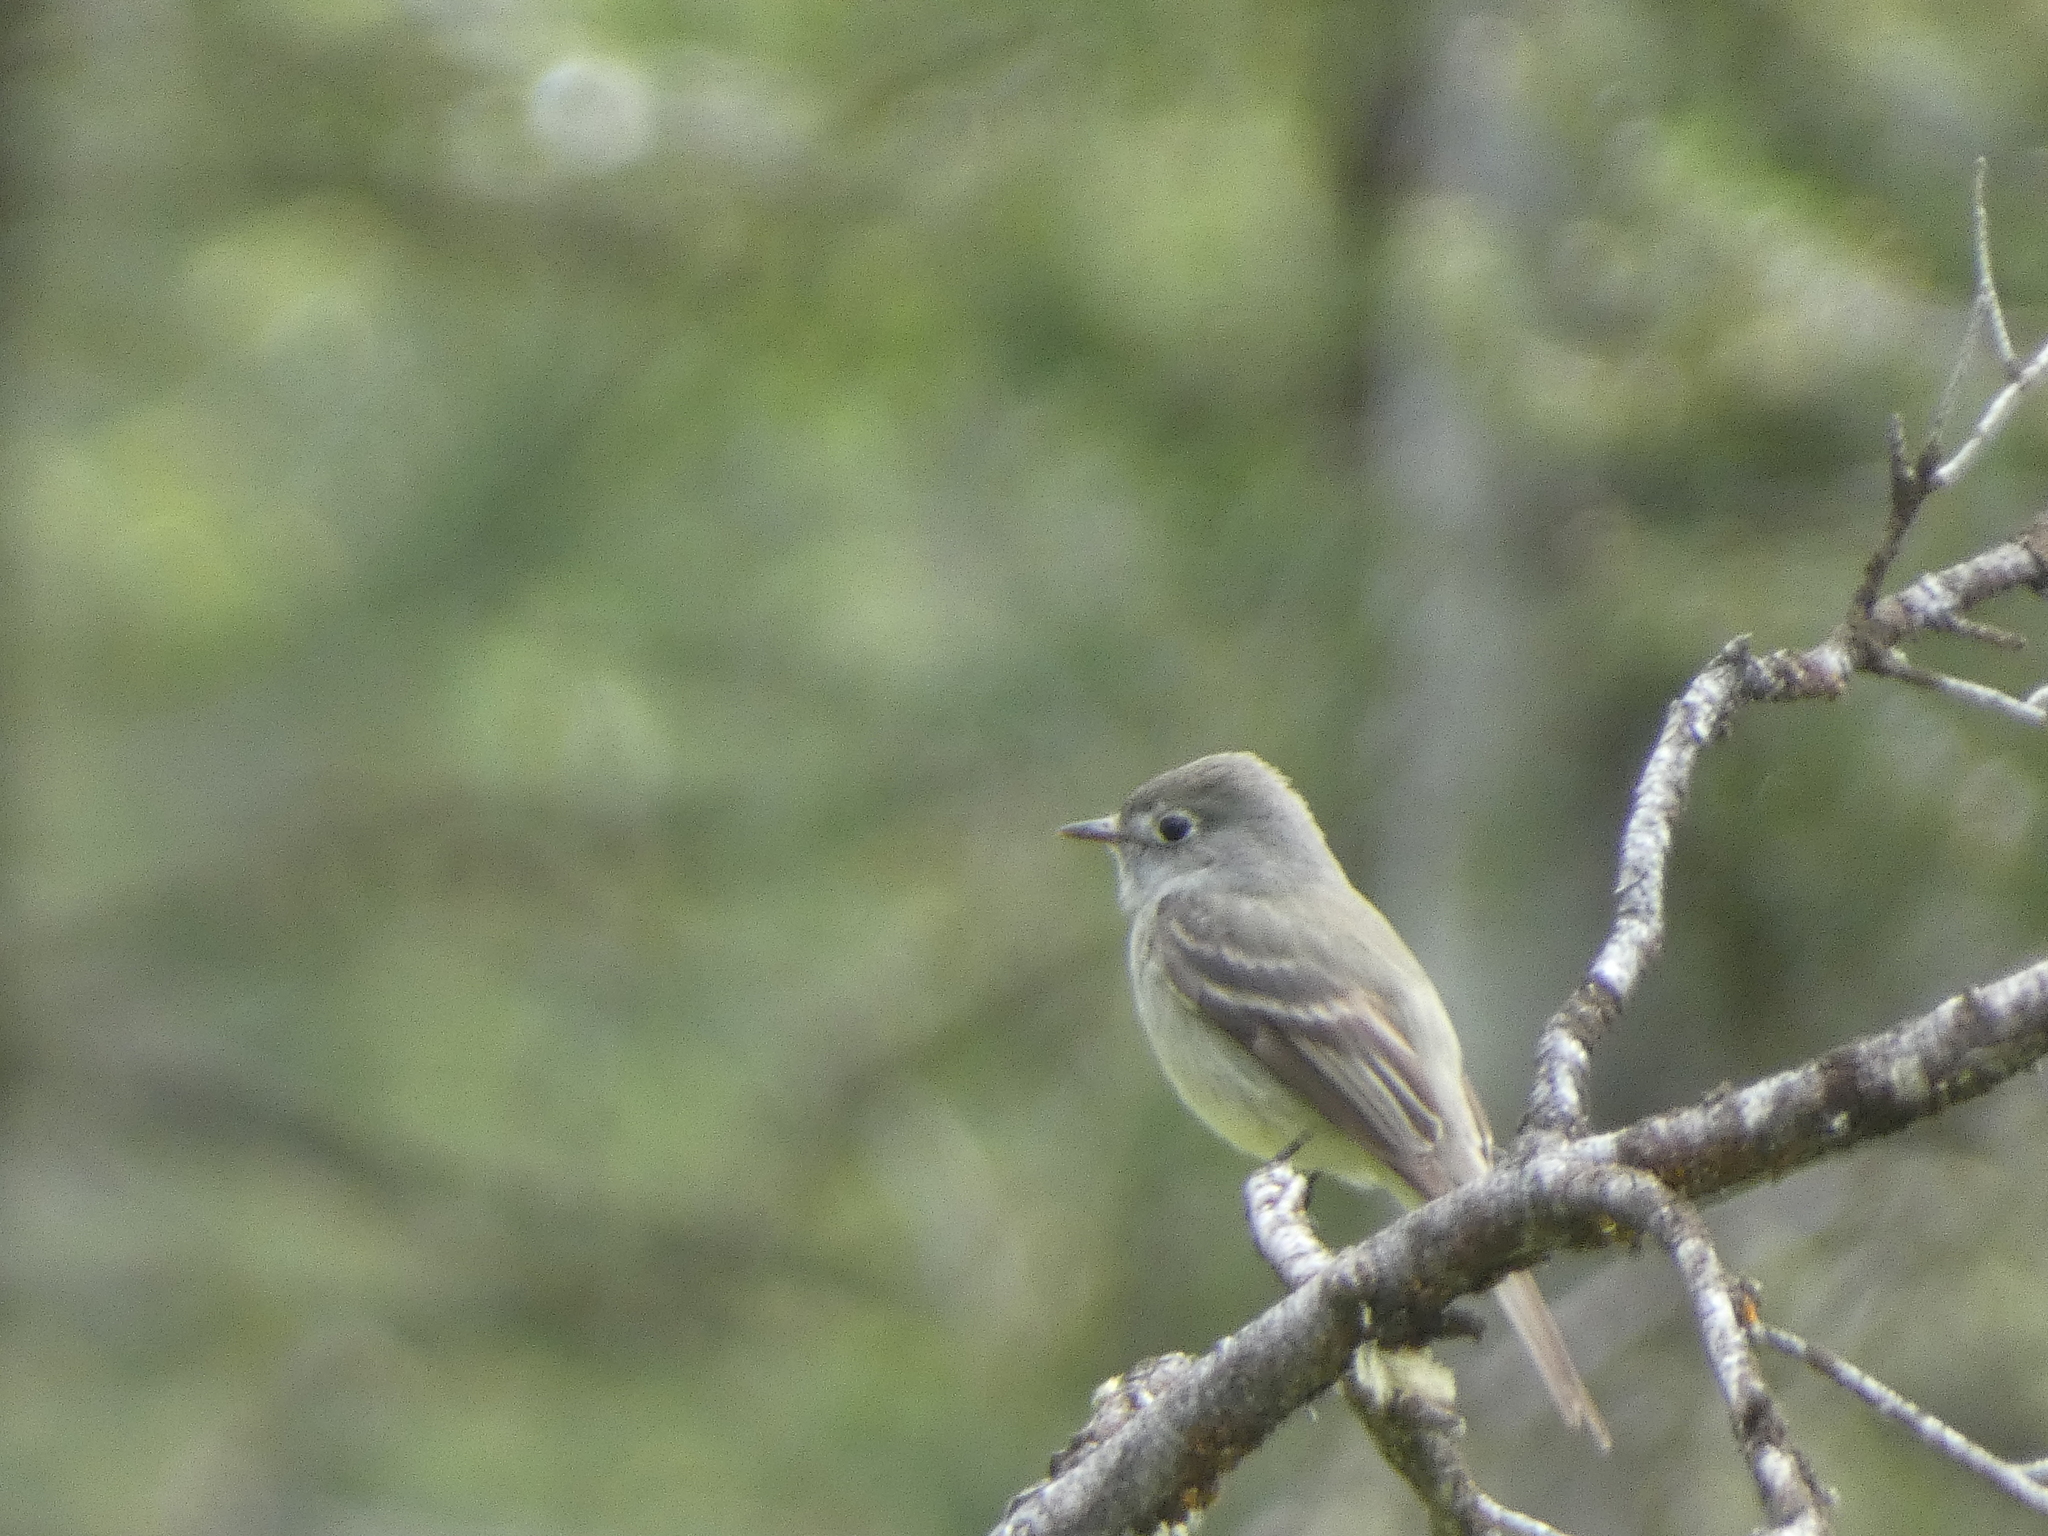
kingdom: Animalia
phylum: Chordata
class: Aves
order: Passeriformes
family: Tyrannidae
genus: Empidonax
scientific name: Empidonax oberholseri
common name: Dusky flycatcher
